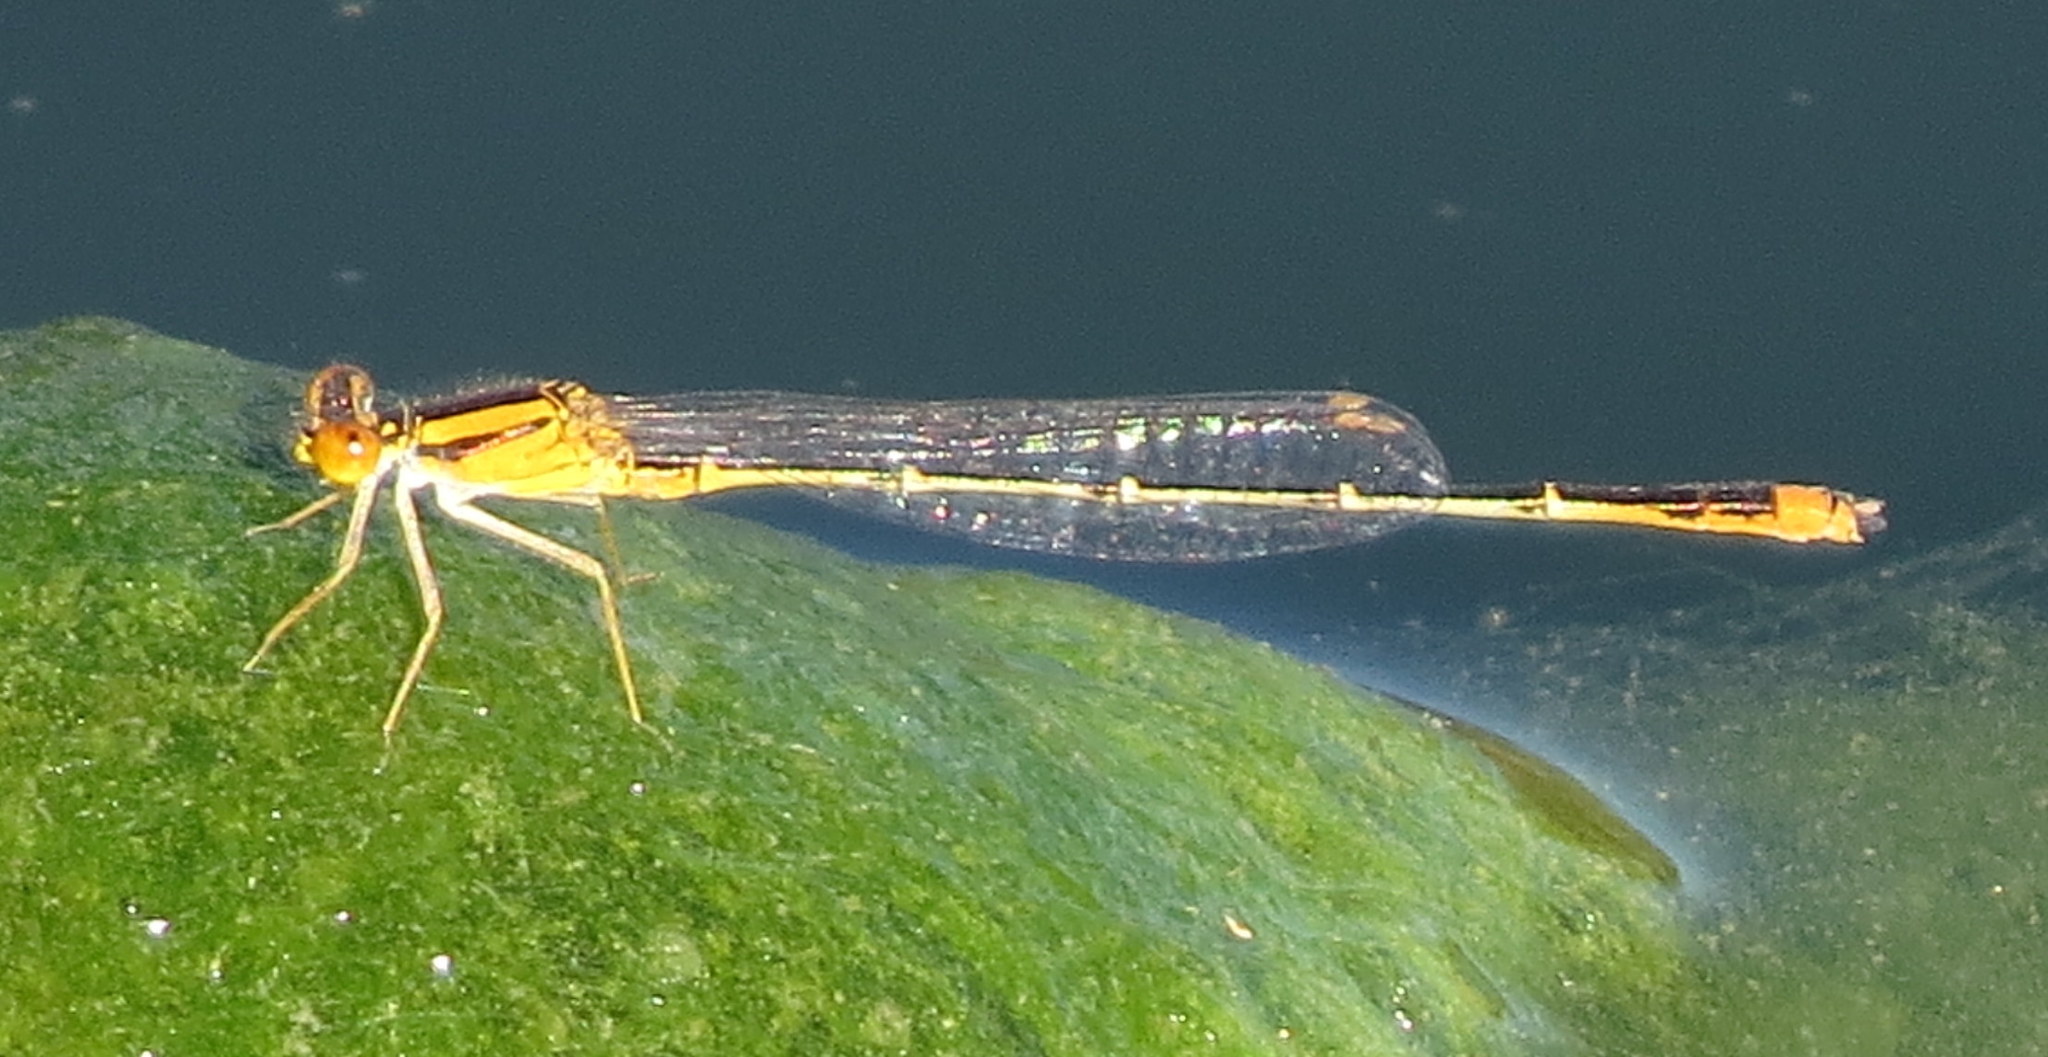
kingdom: Animalia
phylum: Arthropoda
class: Insecta
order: Odonata
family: Coenagrionidae
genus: Enallagma
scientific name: Enallagma signatum
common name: Orange bluet
